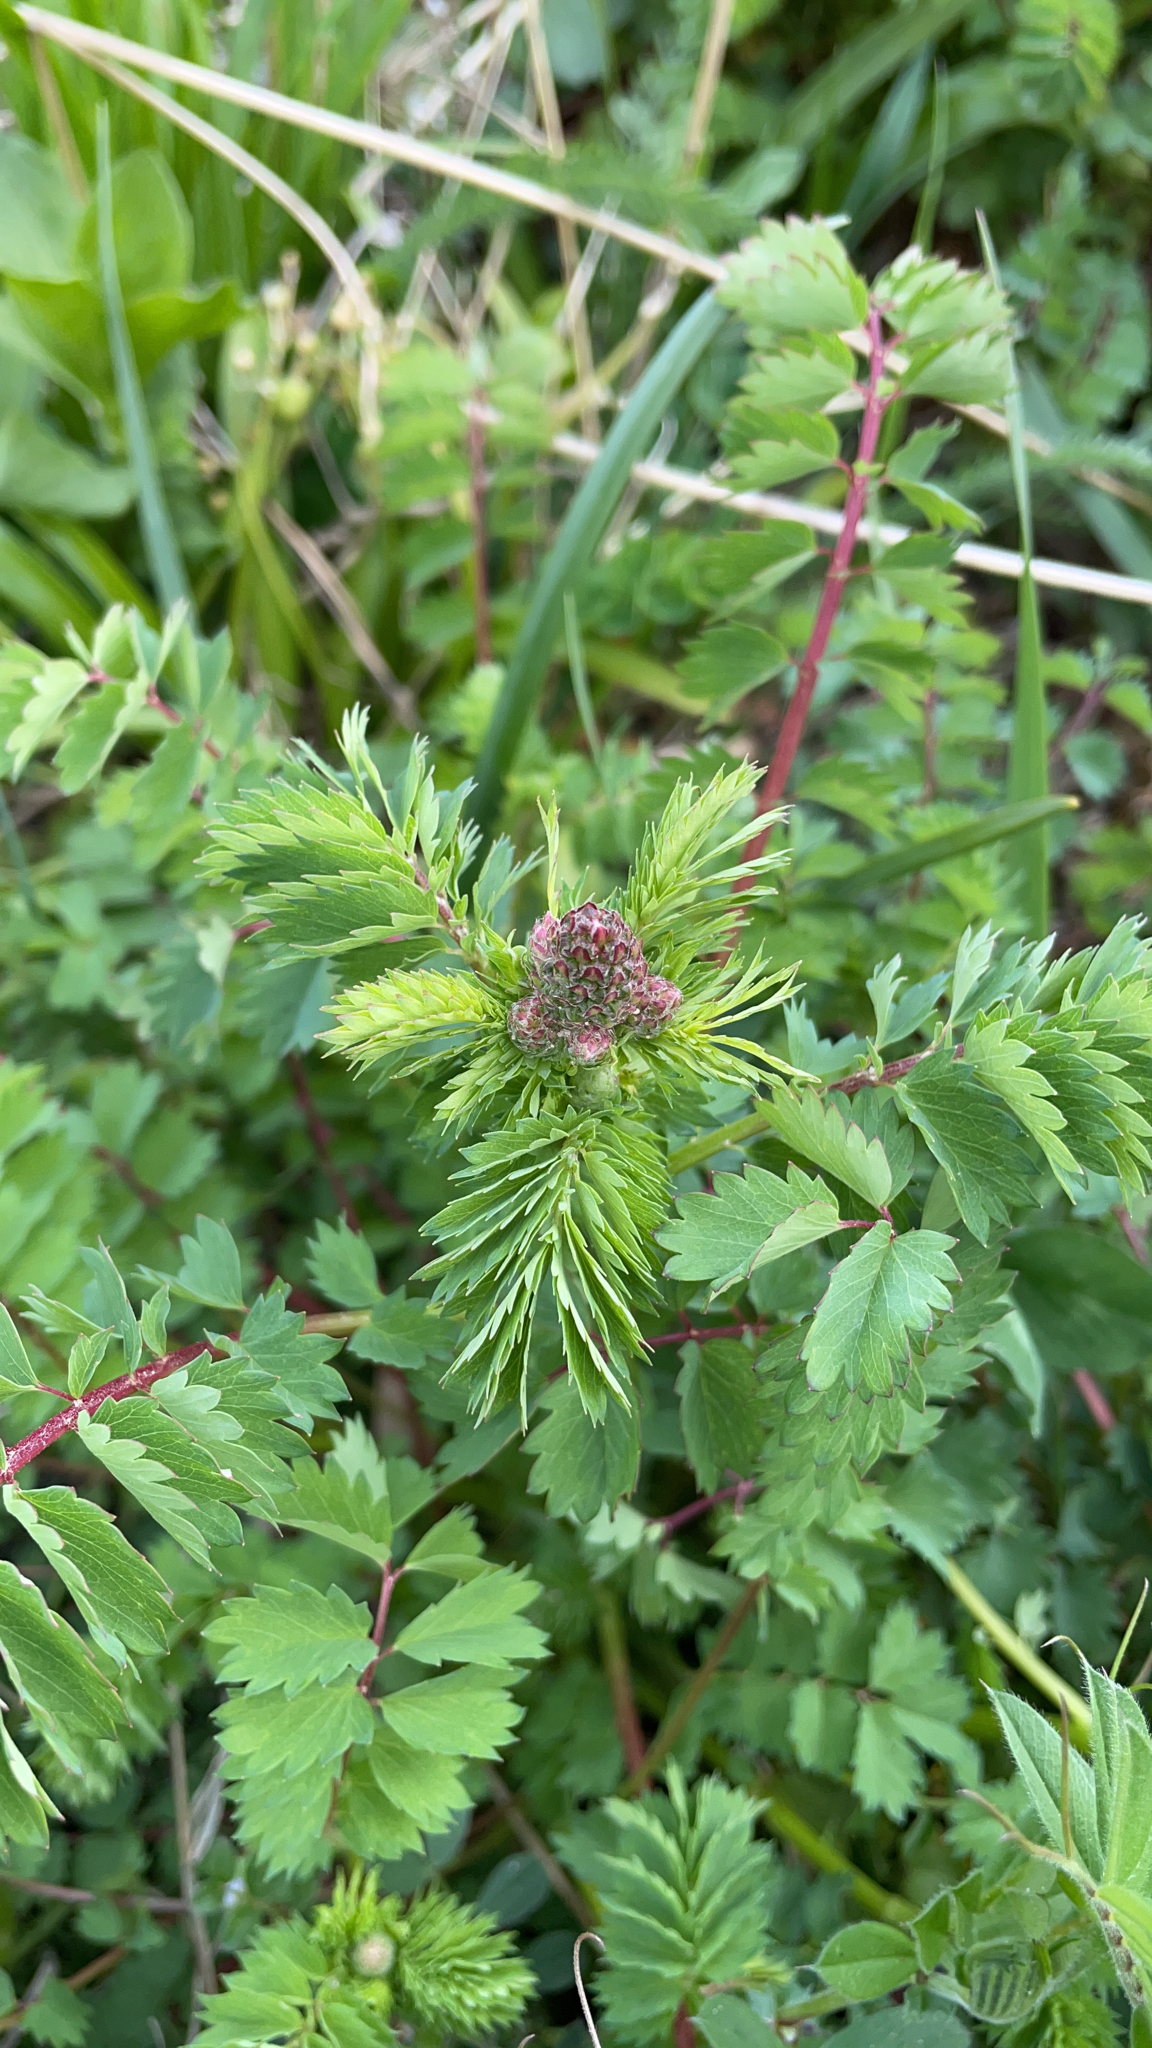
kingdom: Plantae
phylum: Tracheophyta
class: Magnoliopsida
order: Rosales
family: Rosaceae
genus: Poterium
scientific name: Poterium sanguisorba
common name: Salad burnet
